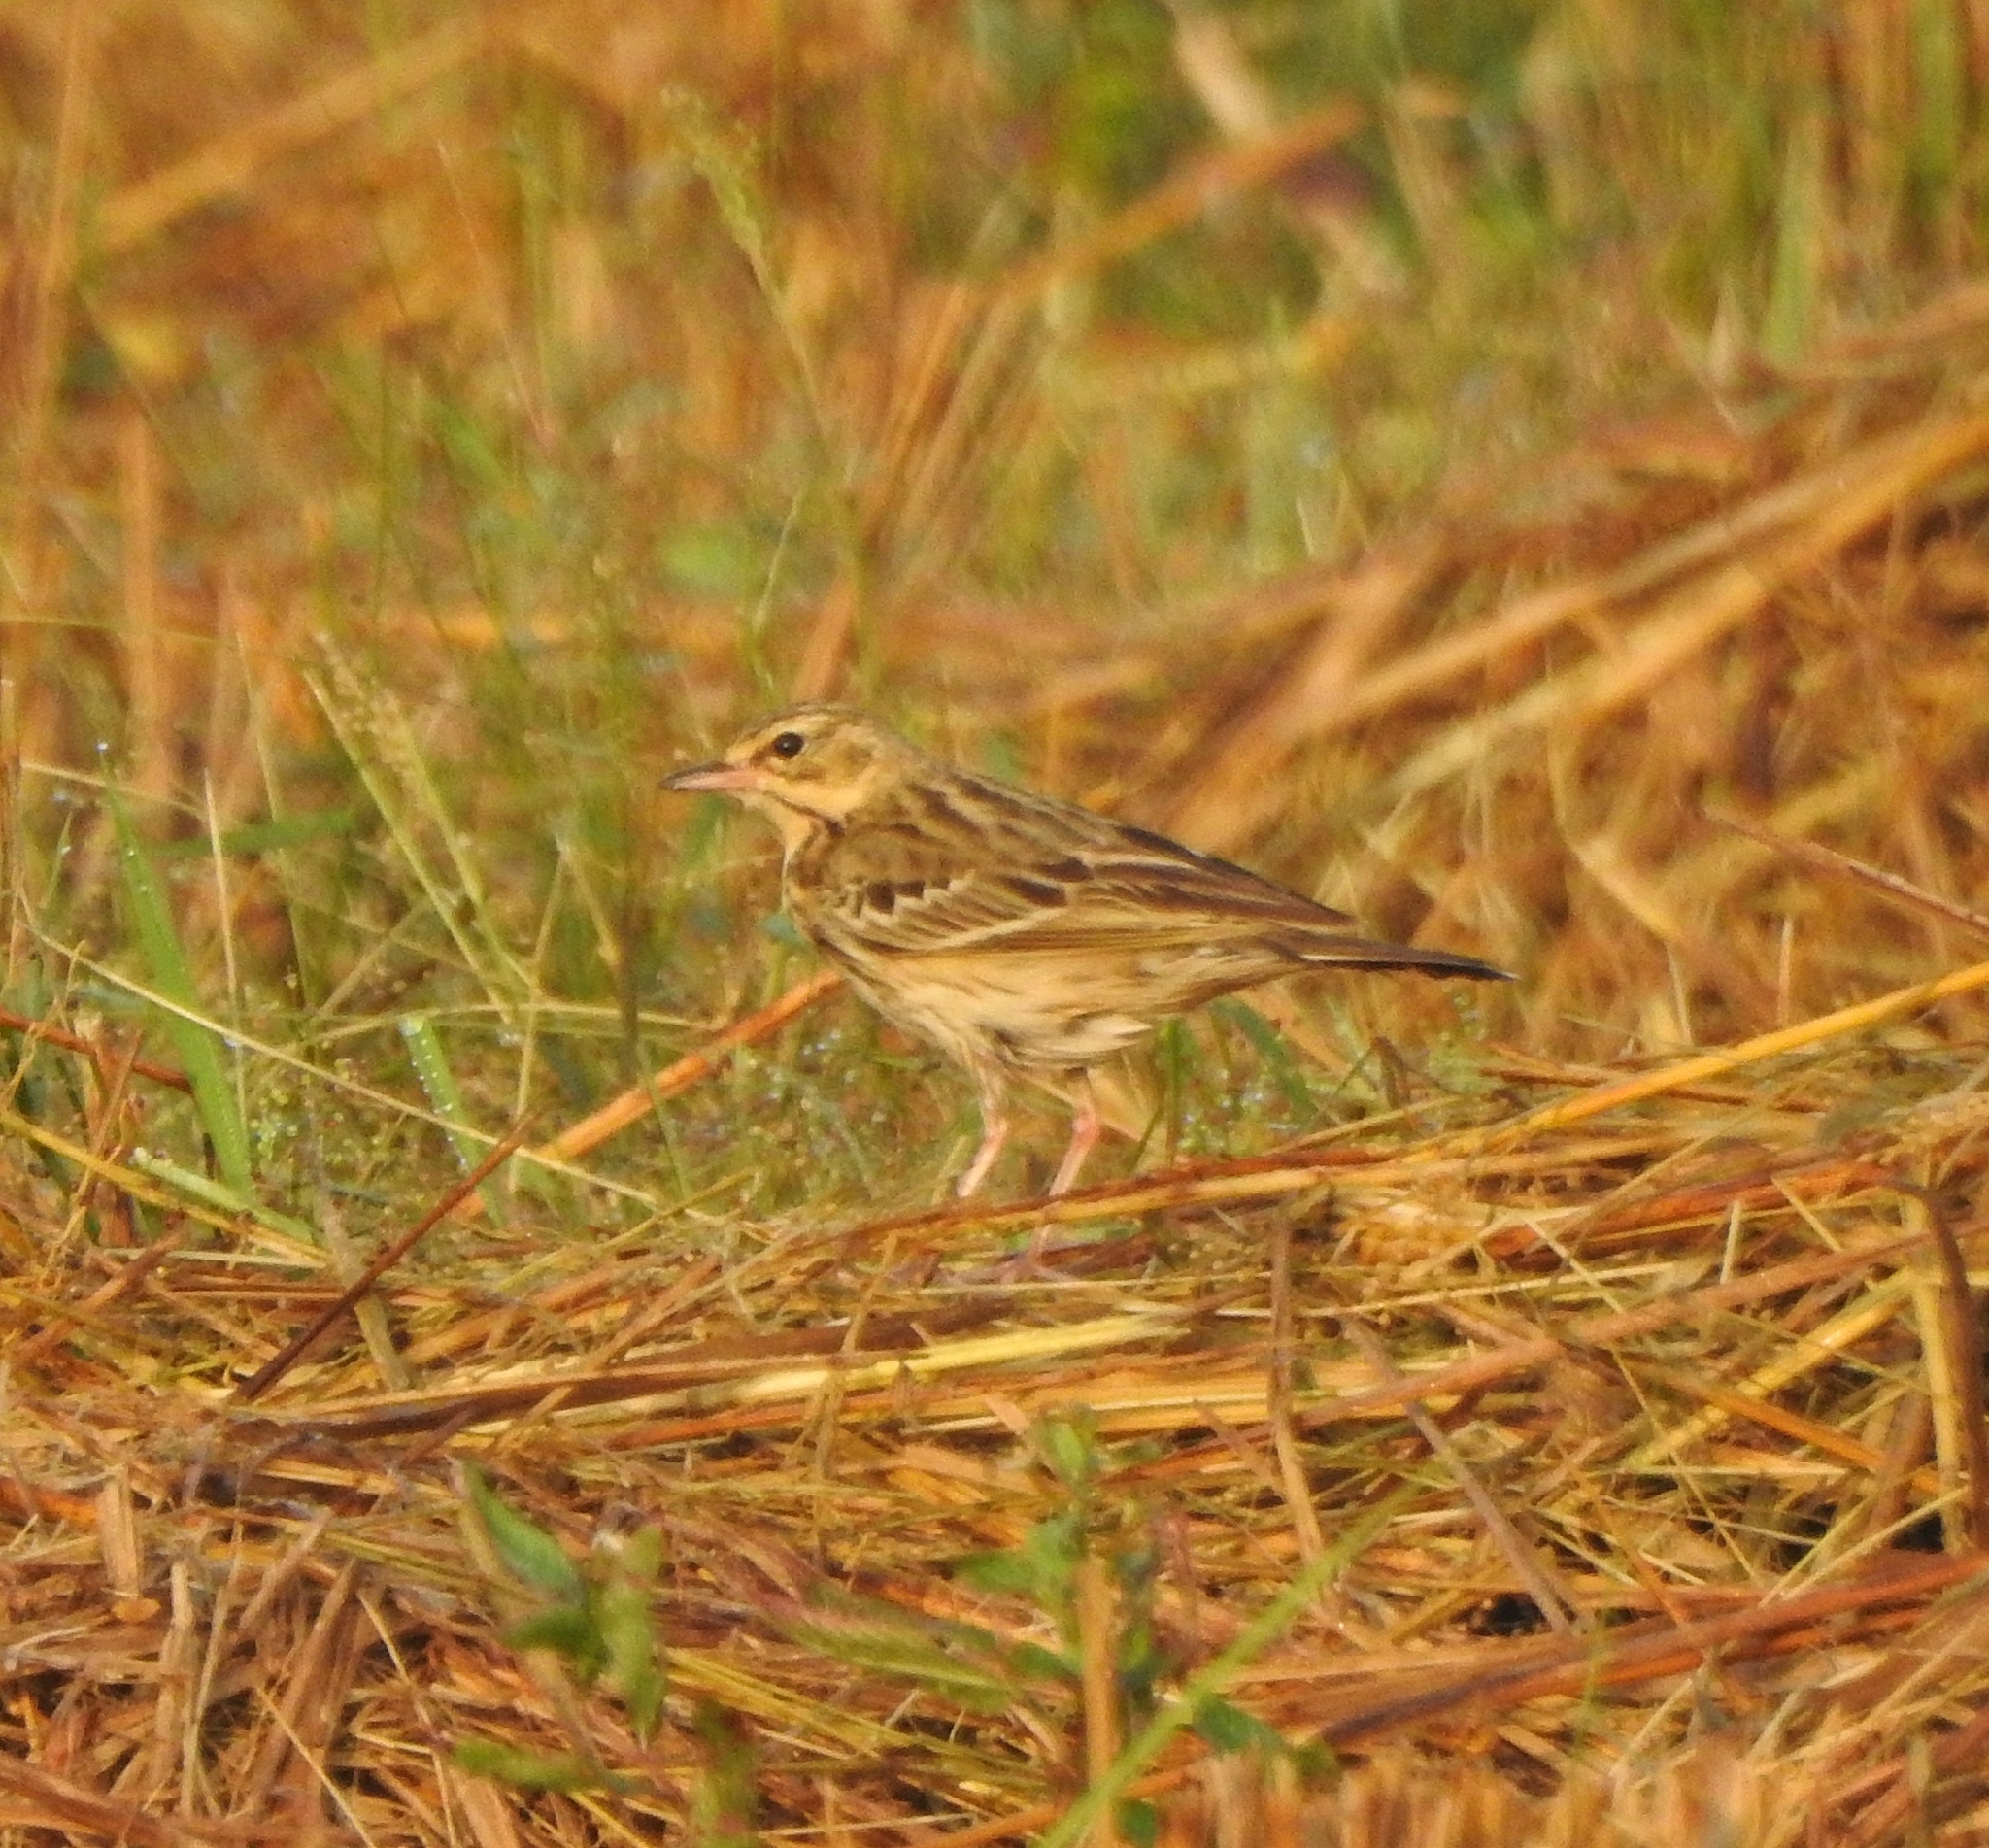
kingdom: Animalia
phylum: Chordata
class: Aves
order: Passeriformes
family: Motacillidae
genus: Anthus
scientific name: Anthus trivialis
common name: Tree pipit
